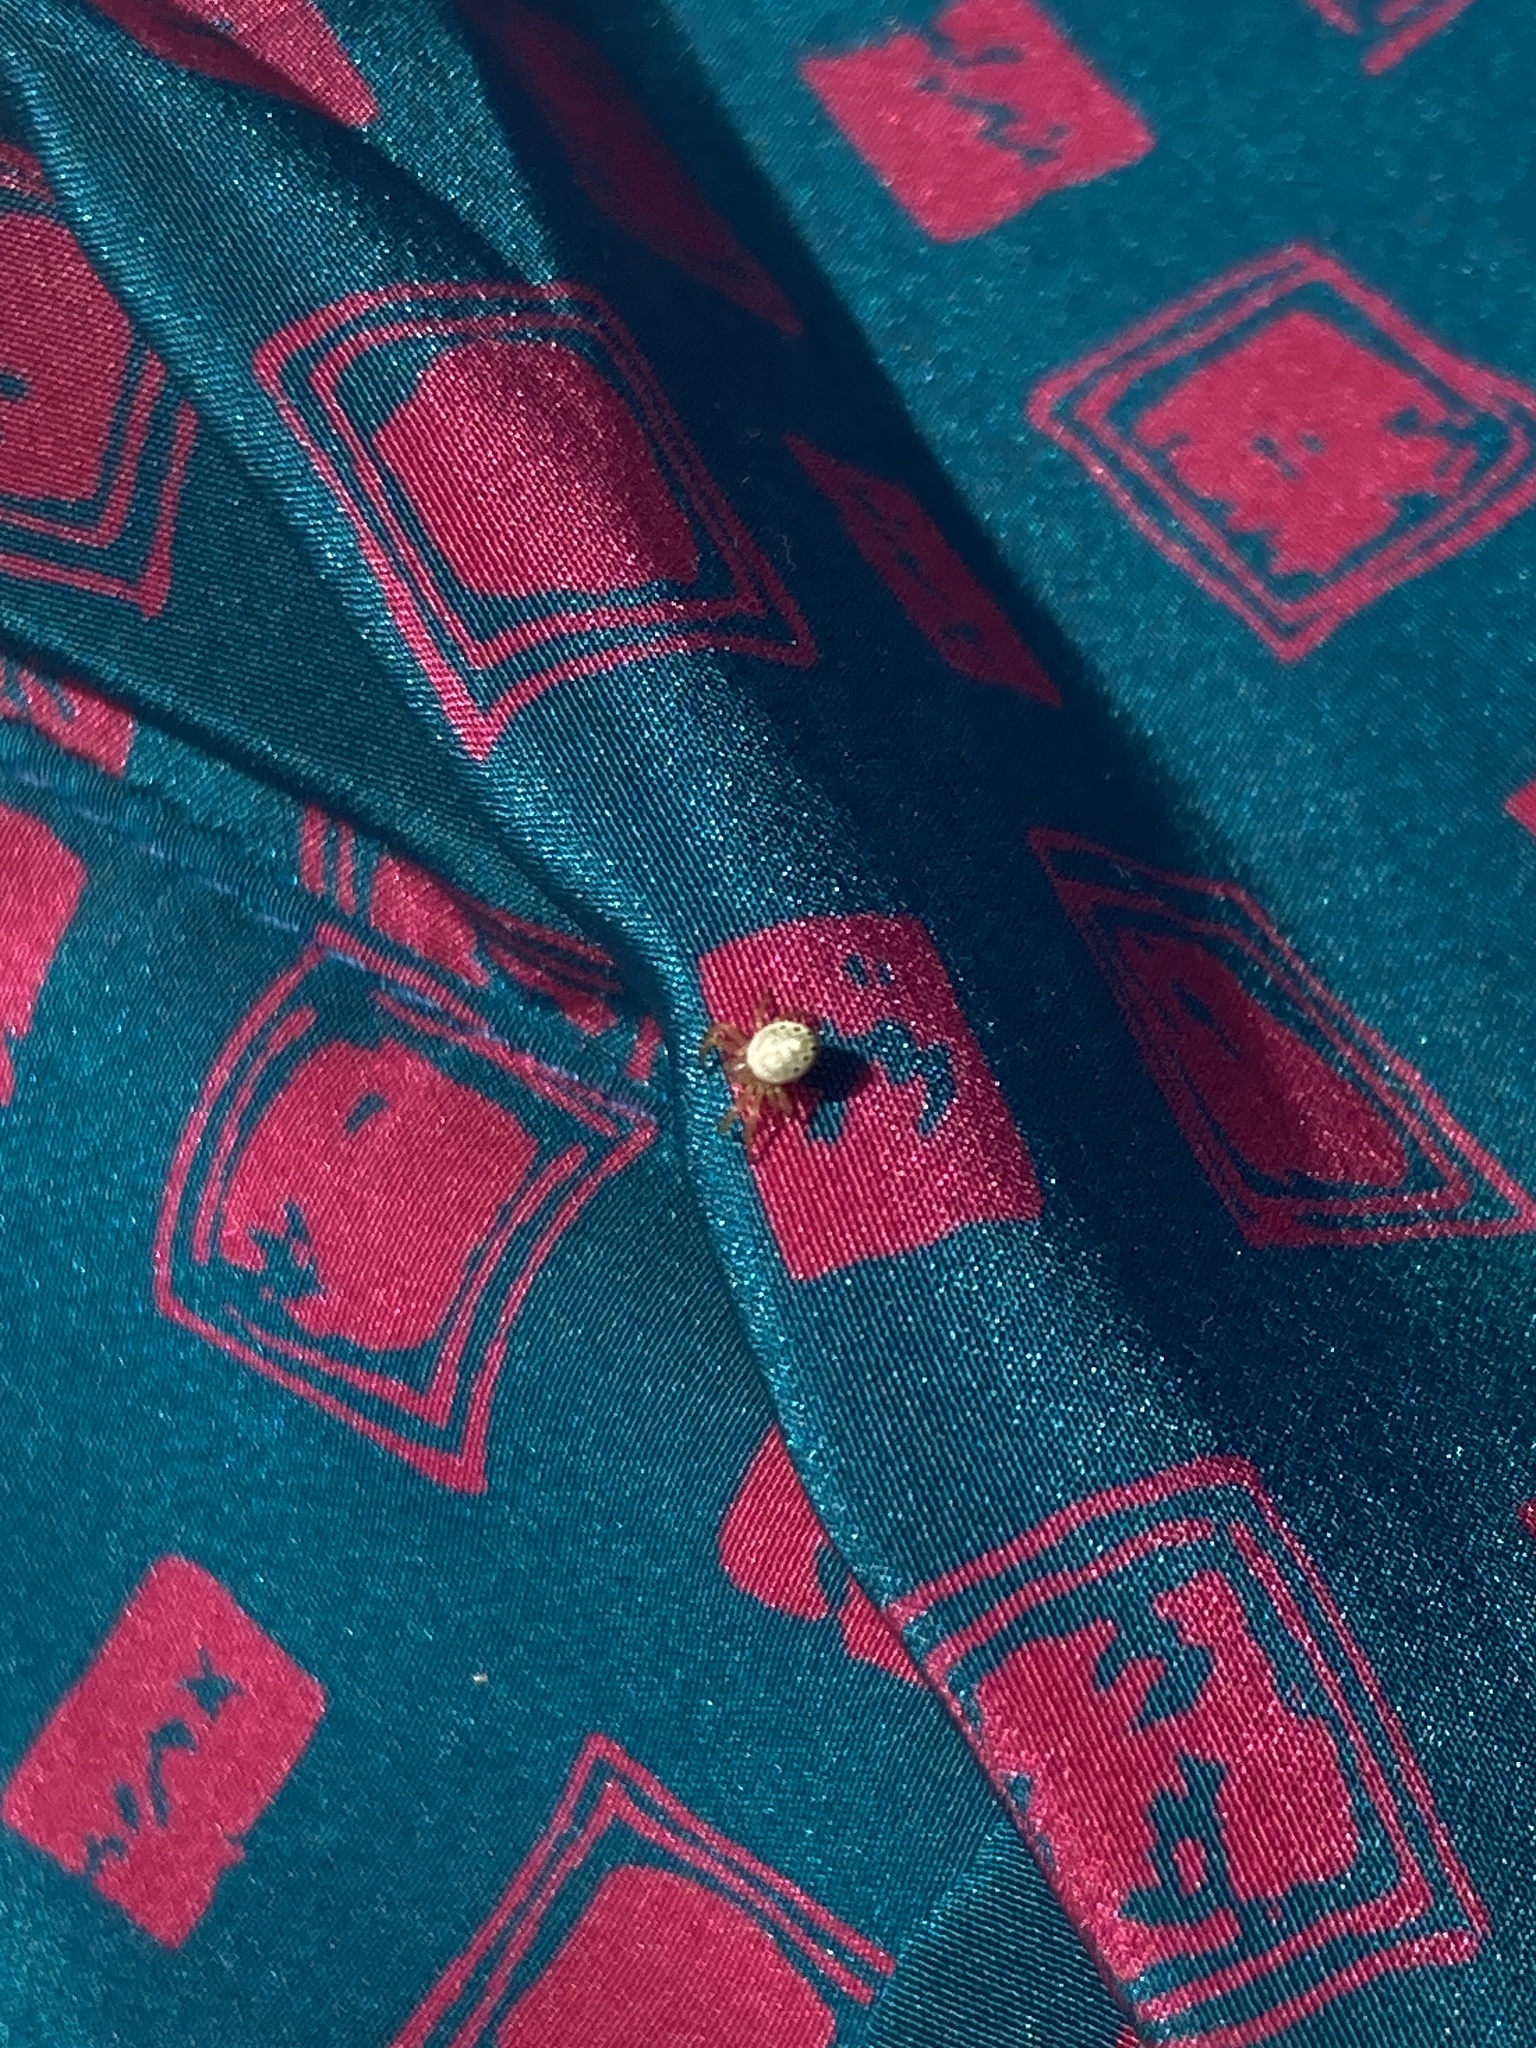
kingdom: Animalia
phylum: Arthropoda
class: Arachnida
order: Araneae
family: Araneidae
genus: Araniella
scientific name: Araniella displicata
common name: Sixspotted orb weaver
